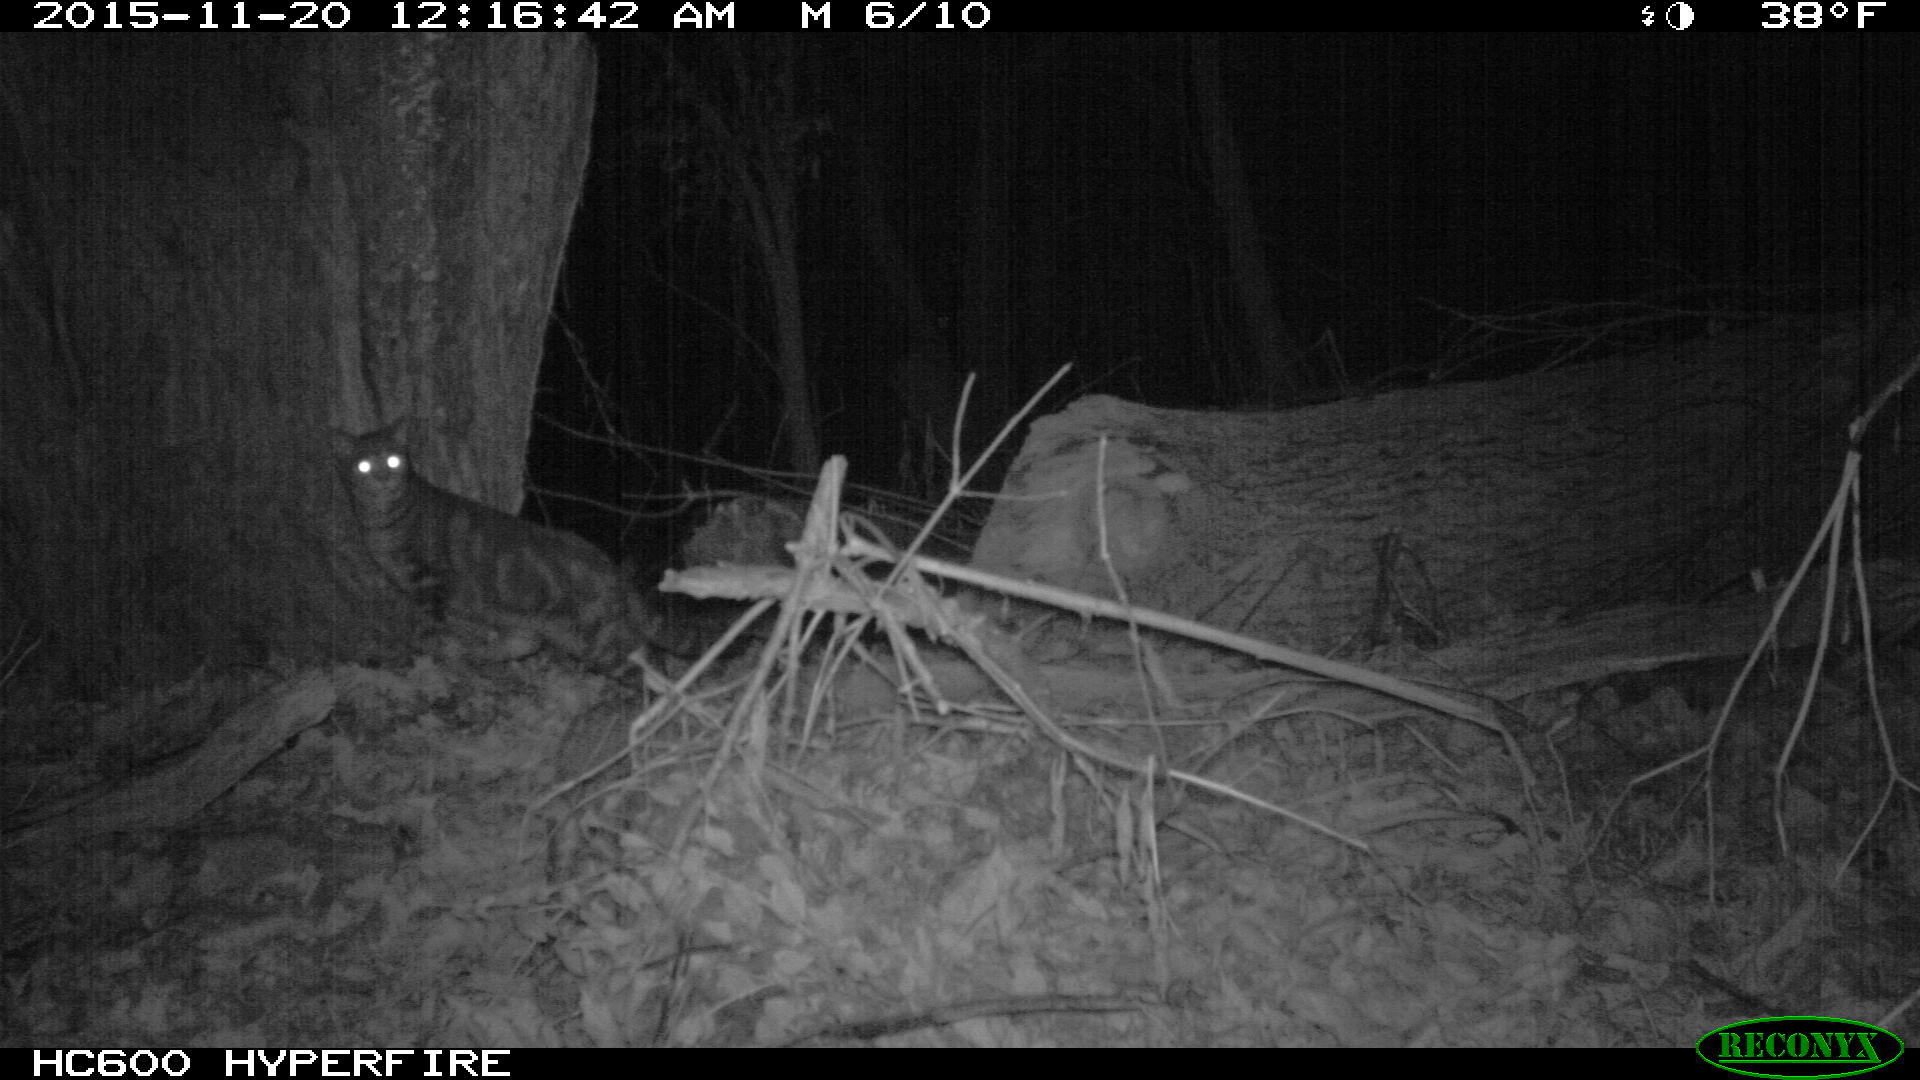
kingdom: Animalia
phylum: Chordata
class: Mammalia
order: Carnivora
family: Felidae
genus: Felis
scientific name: Felis catus
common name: Domestic cat
